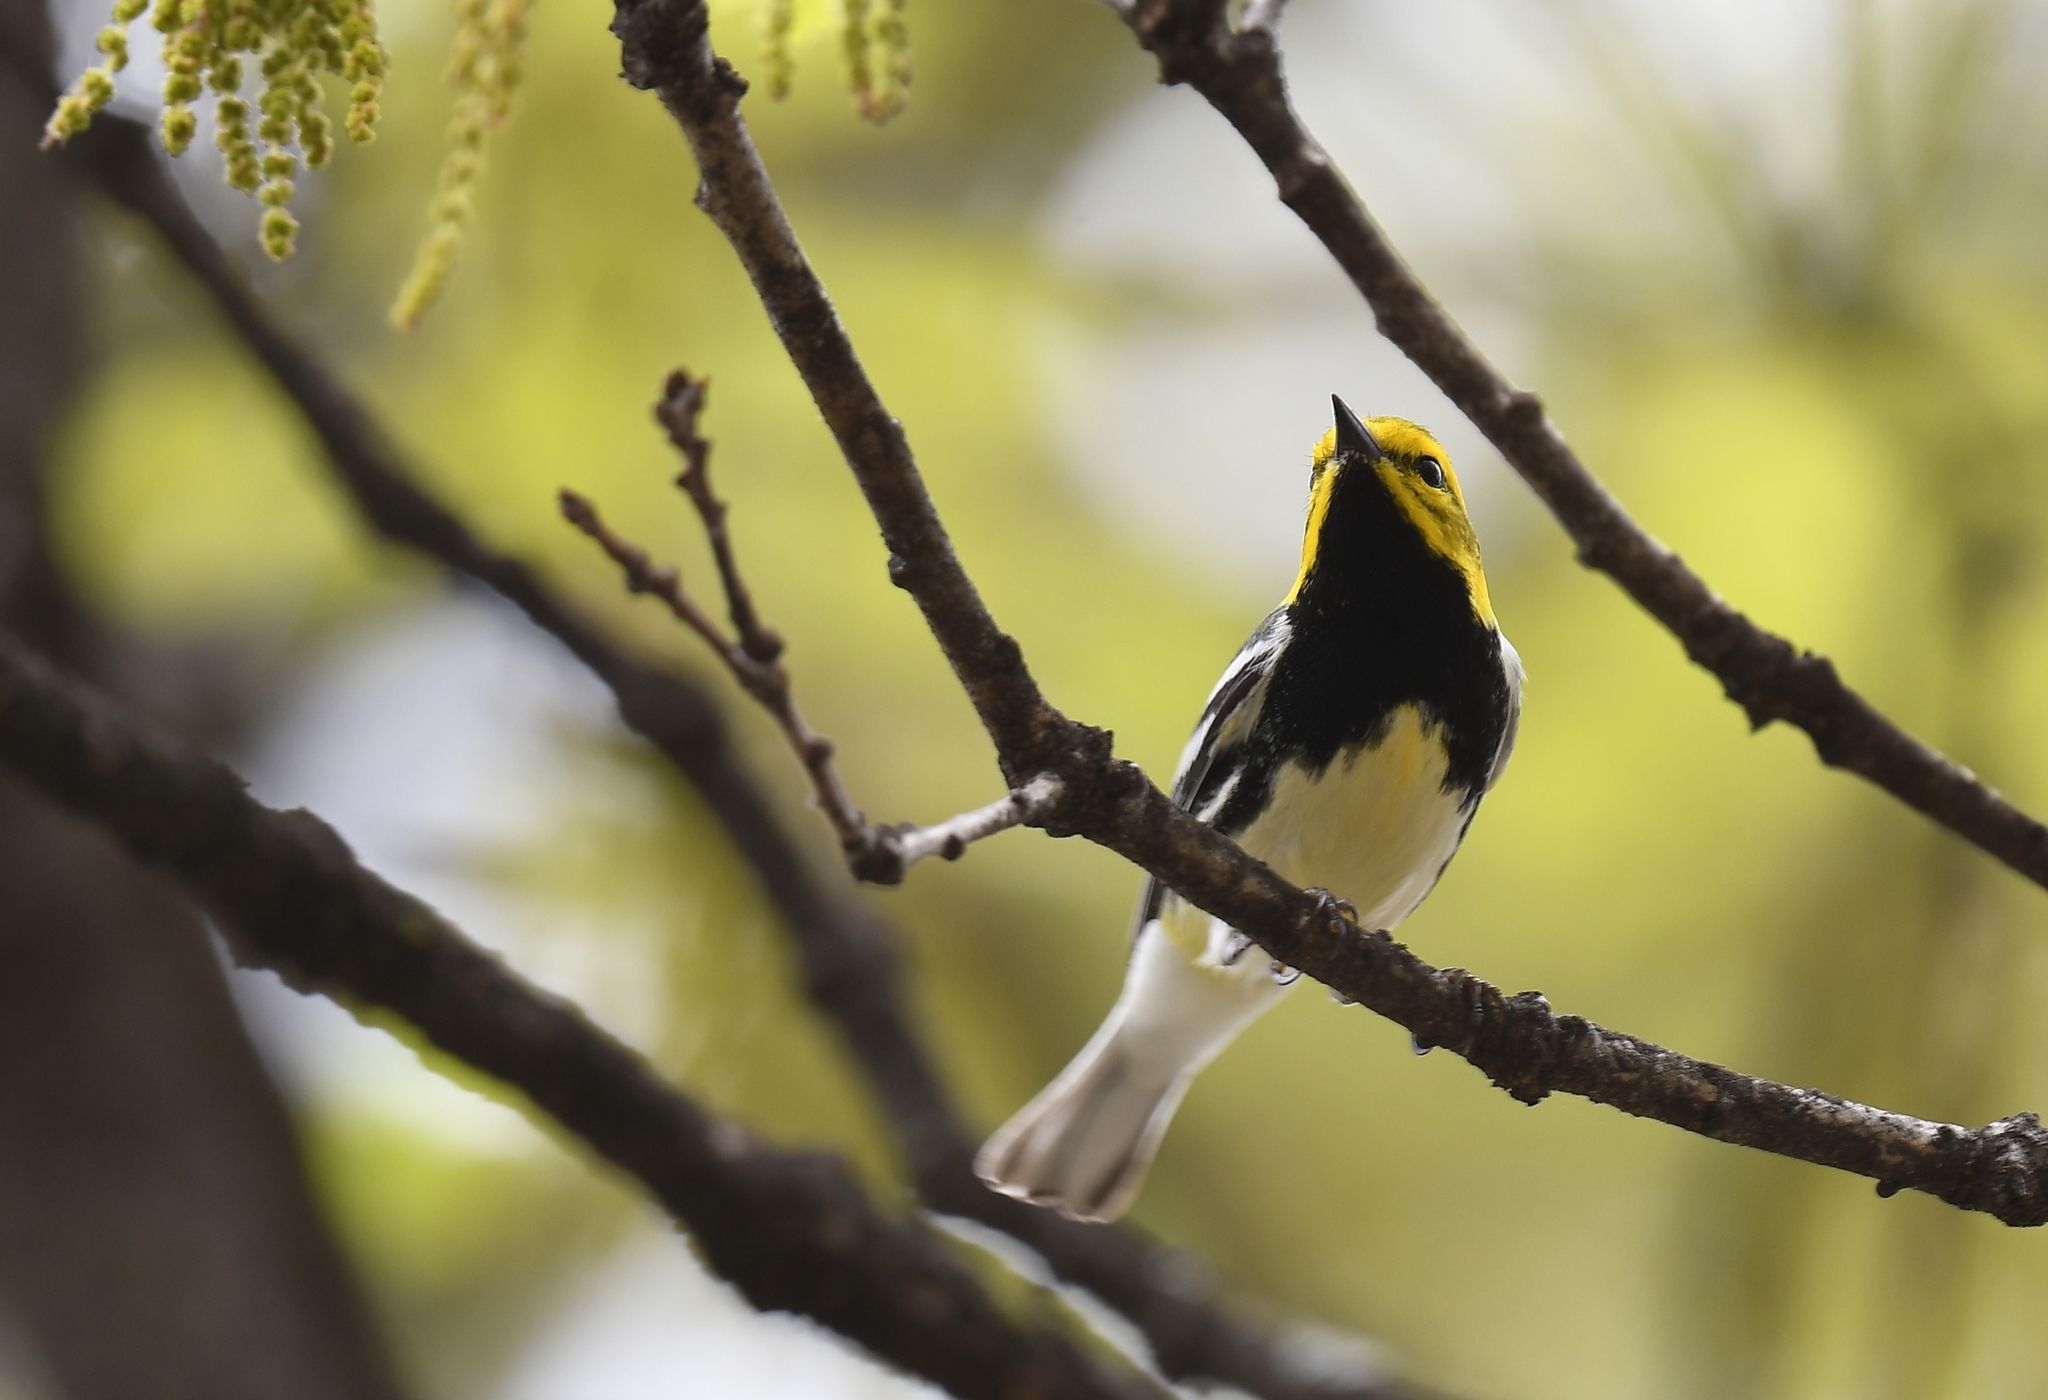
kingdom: Animalia
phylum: Chordata
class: Aves
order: Passeriformes
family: Parulidae
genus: Setophaga
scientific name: Setophaga virens
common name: Black-throated green warbler
